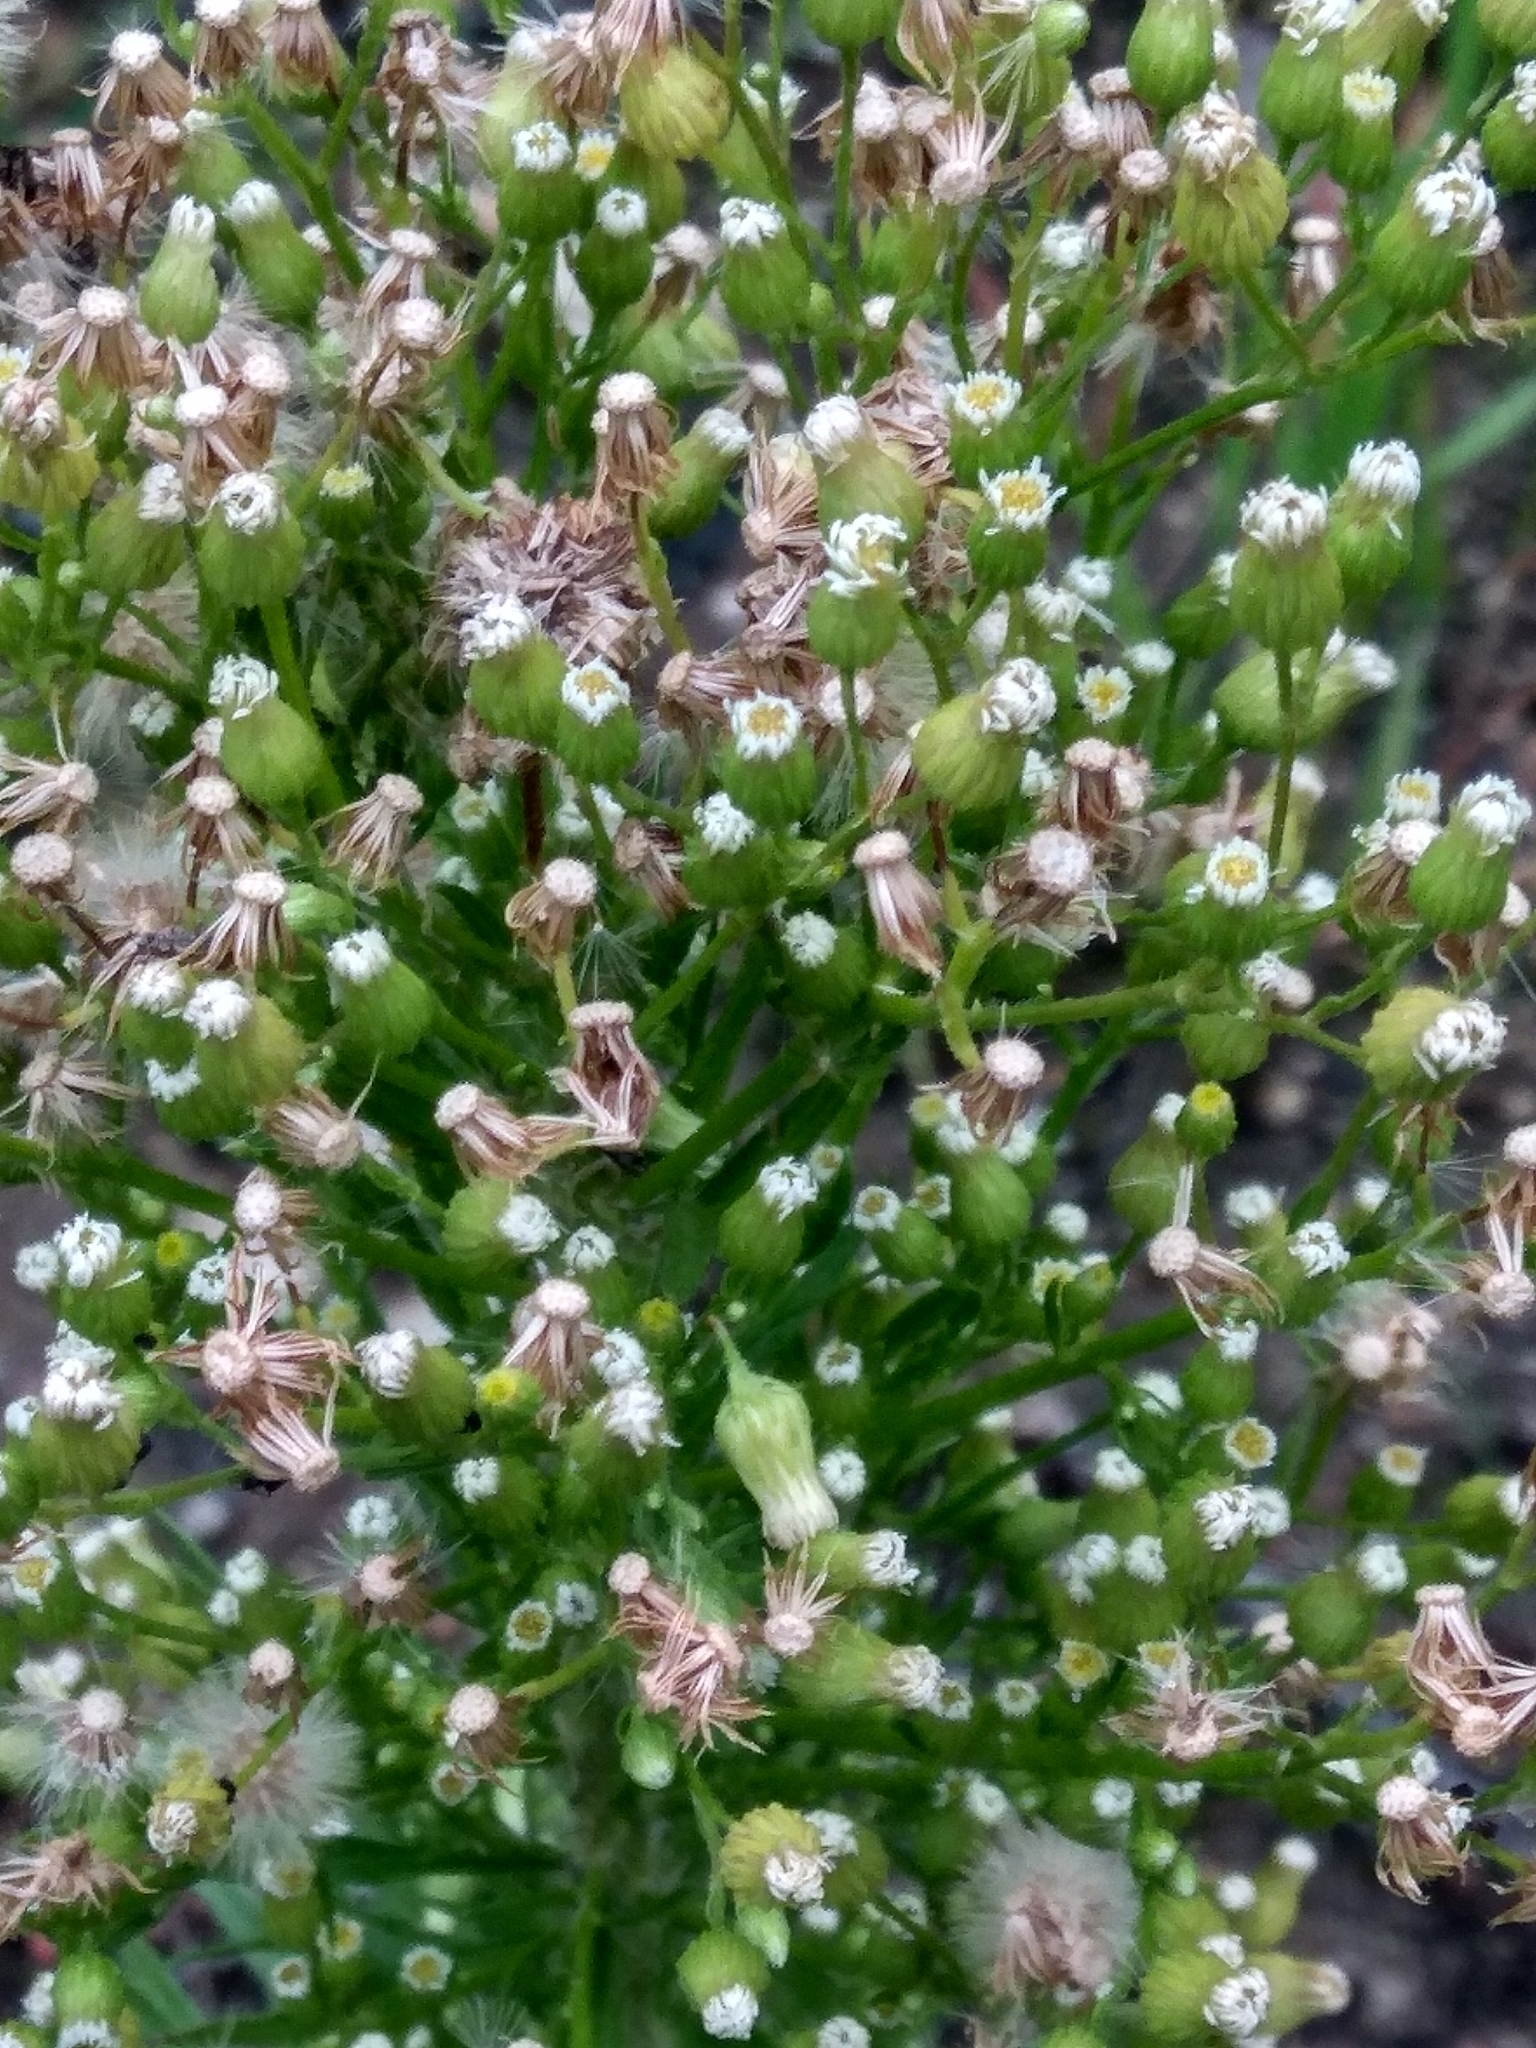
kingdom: Plantae
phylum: Tracheophyta
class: Magnoliopsida
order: Asterales
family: Asteraceae
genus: Erigeron
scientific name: Erigeron canadensis
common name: Canadian fleabane
